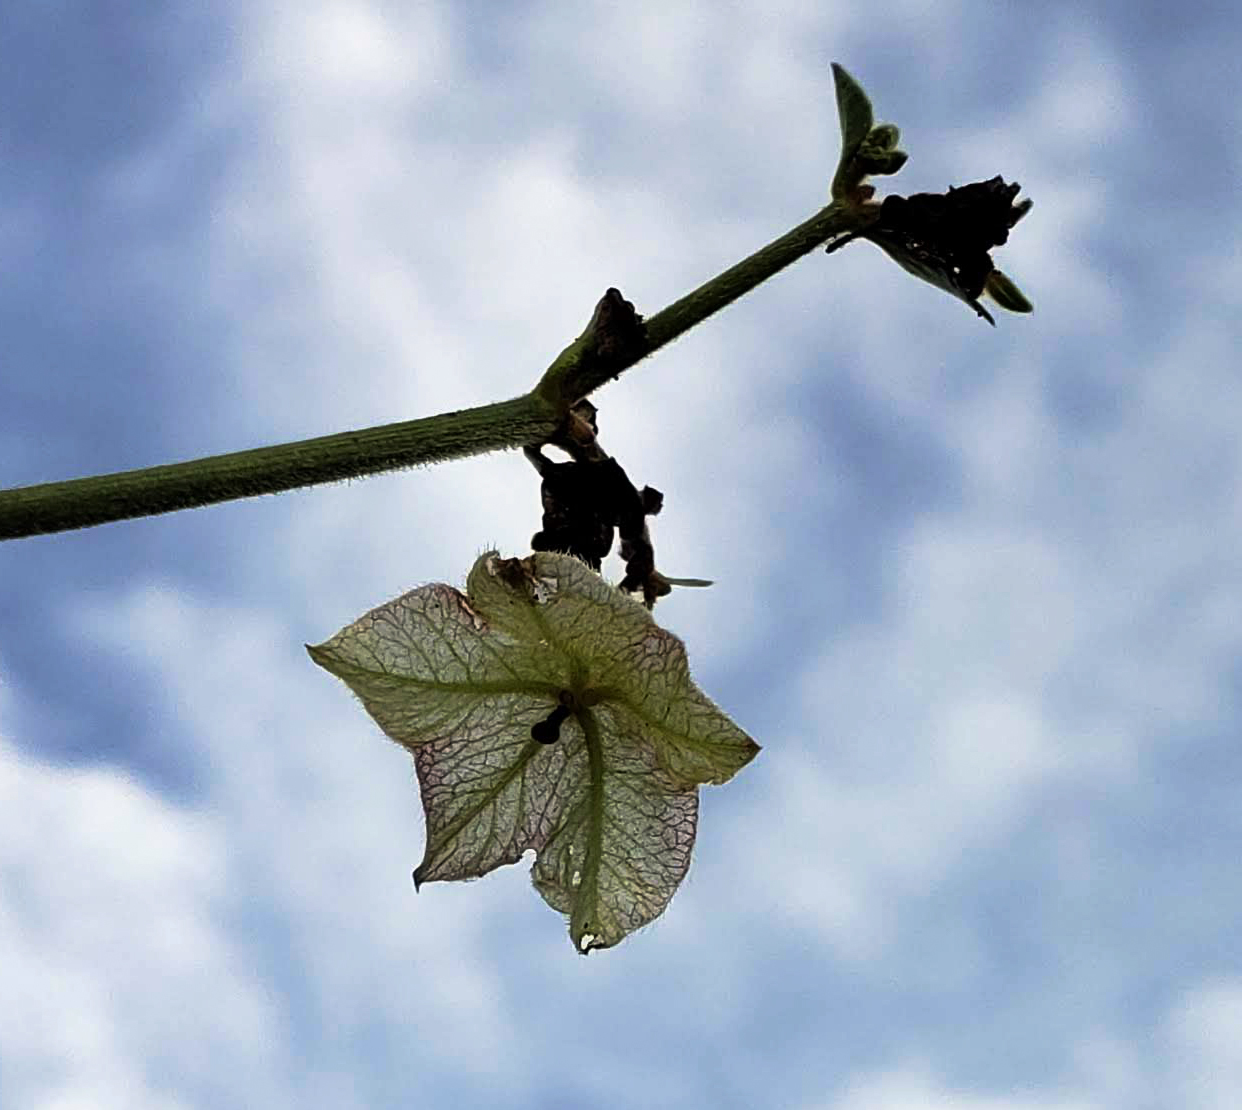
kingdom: Plantae
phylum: Tracheophyta
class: Magnoliopsida
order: Caryophyllales
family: Nyctaginaceae
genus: Mirabilis
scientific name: Mirabilis nyctaginea
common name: Umbrella wort
